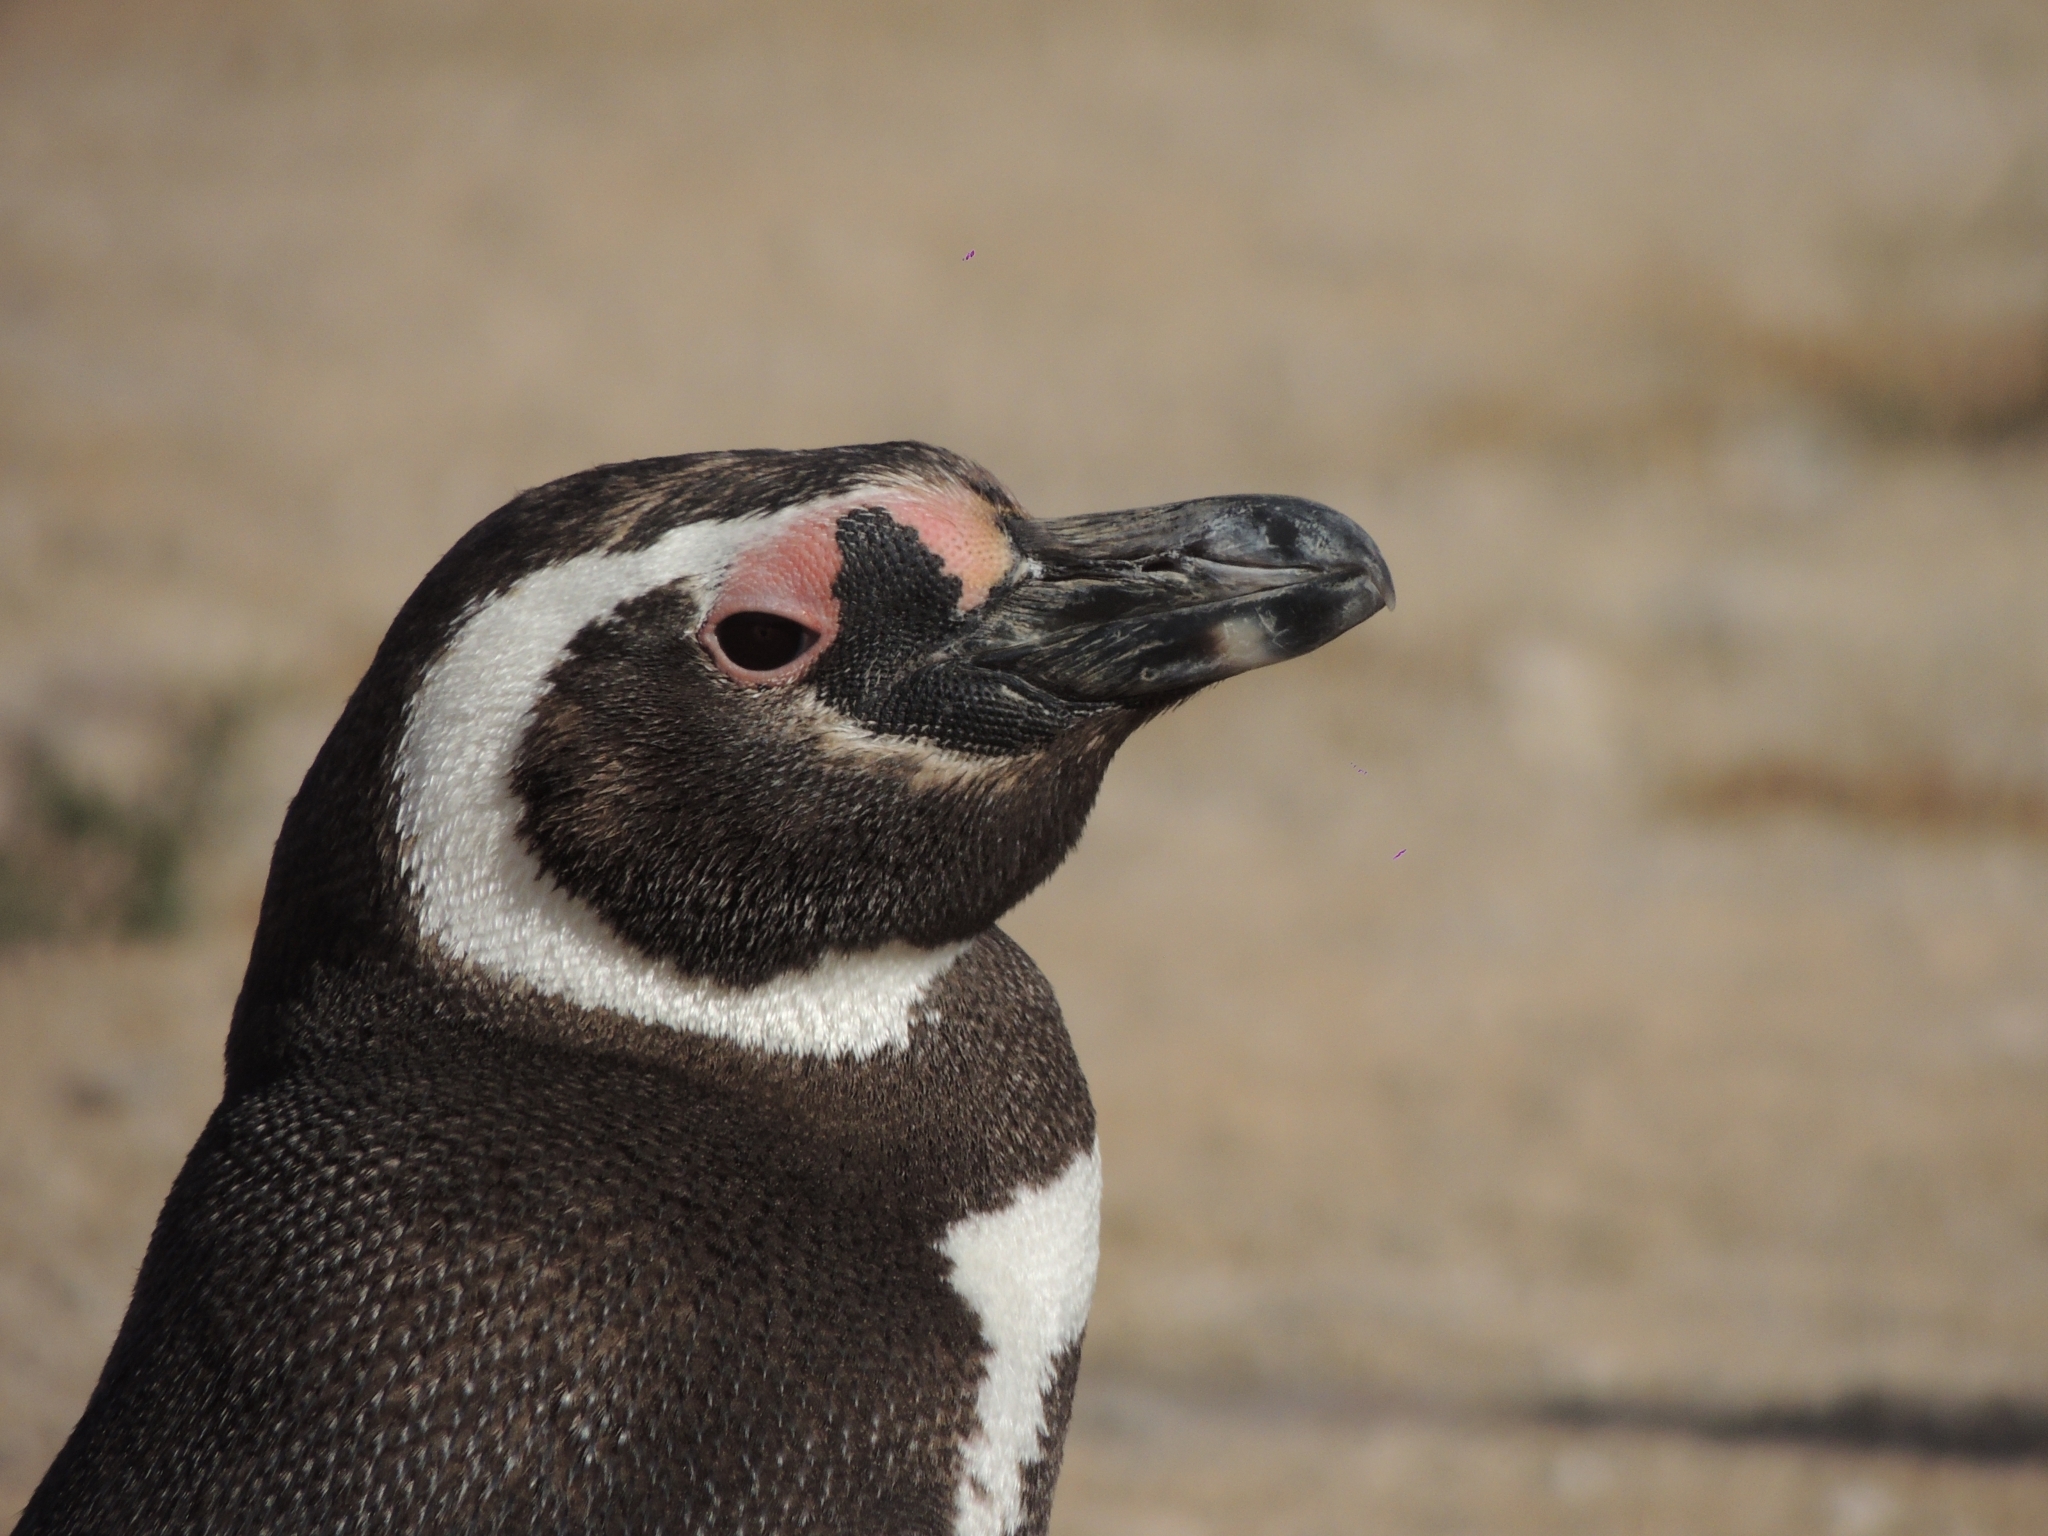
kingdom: Animalia
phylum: Chordata
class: Aves
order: Sphenisciformes
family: Spheniscidae
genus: Spheniscus
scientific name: Spheniscus magellanicus
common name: Magellanic penguin
